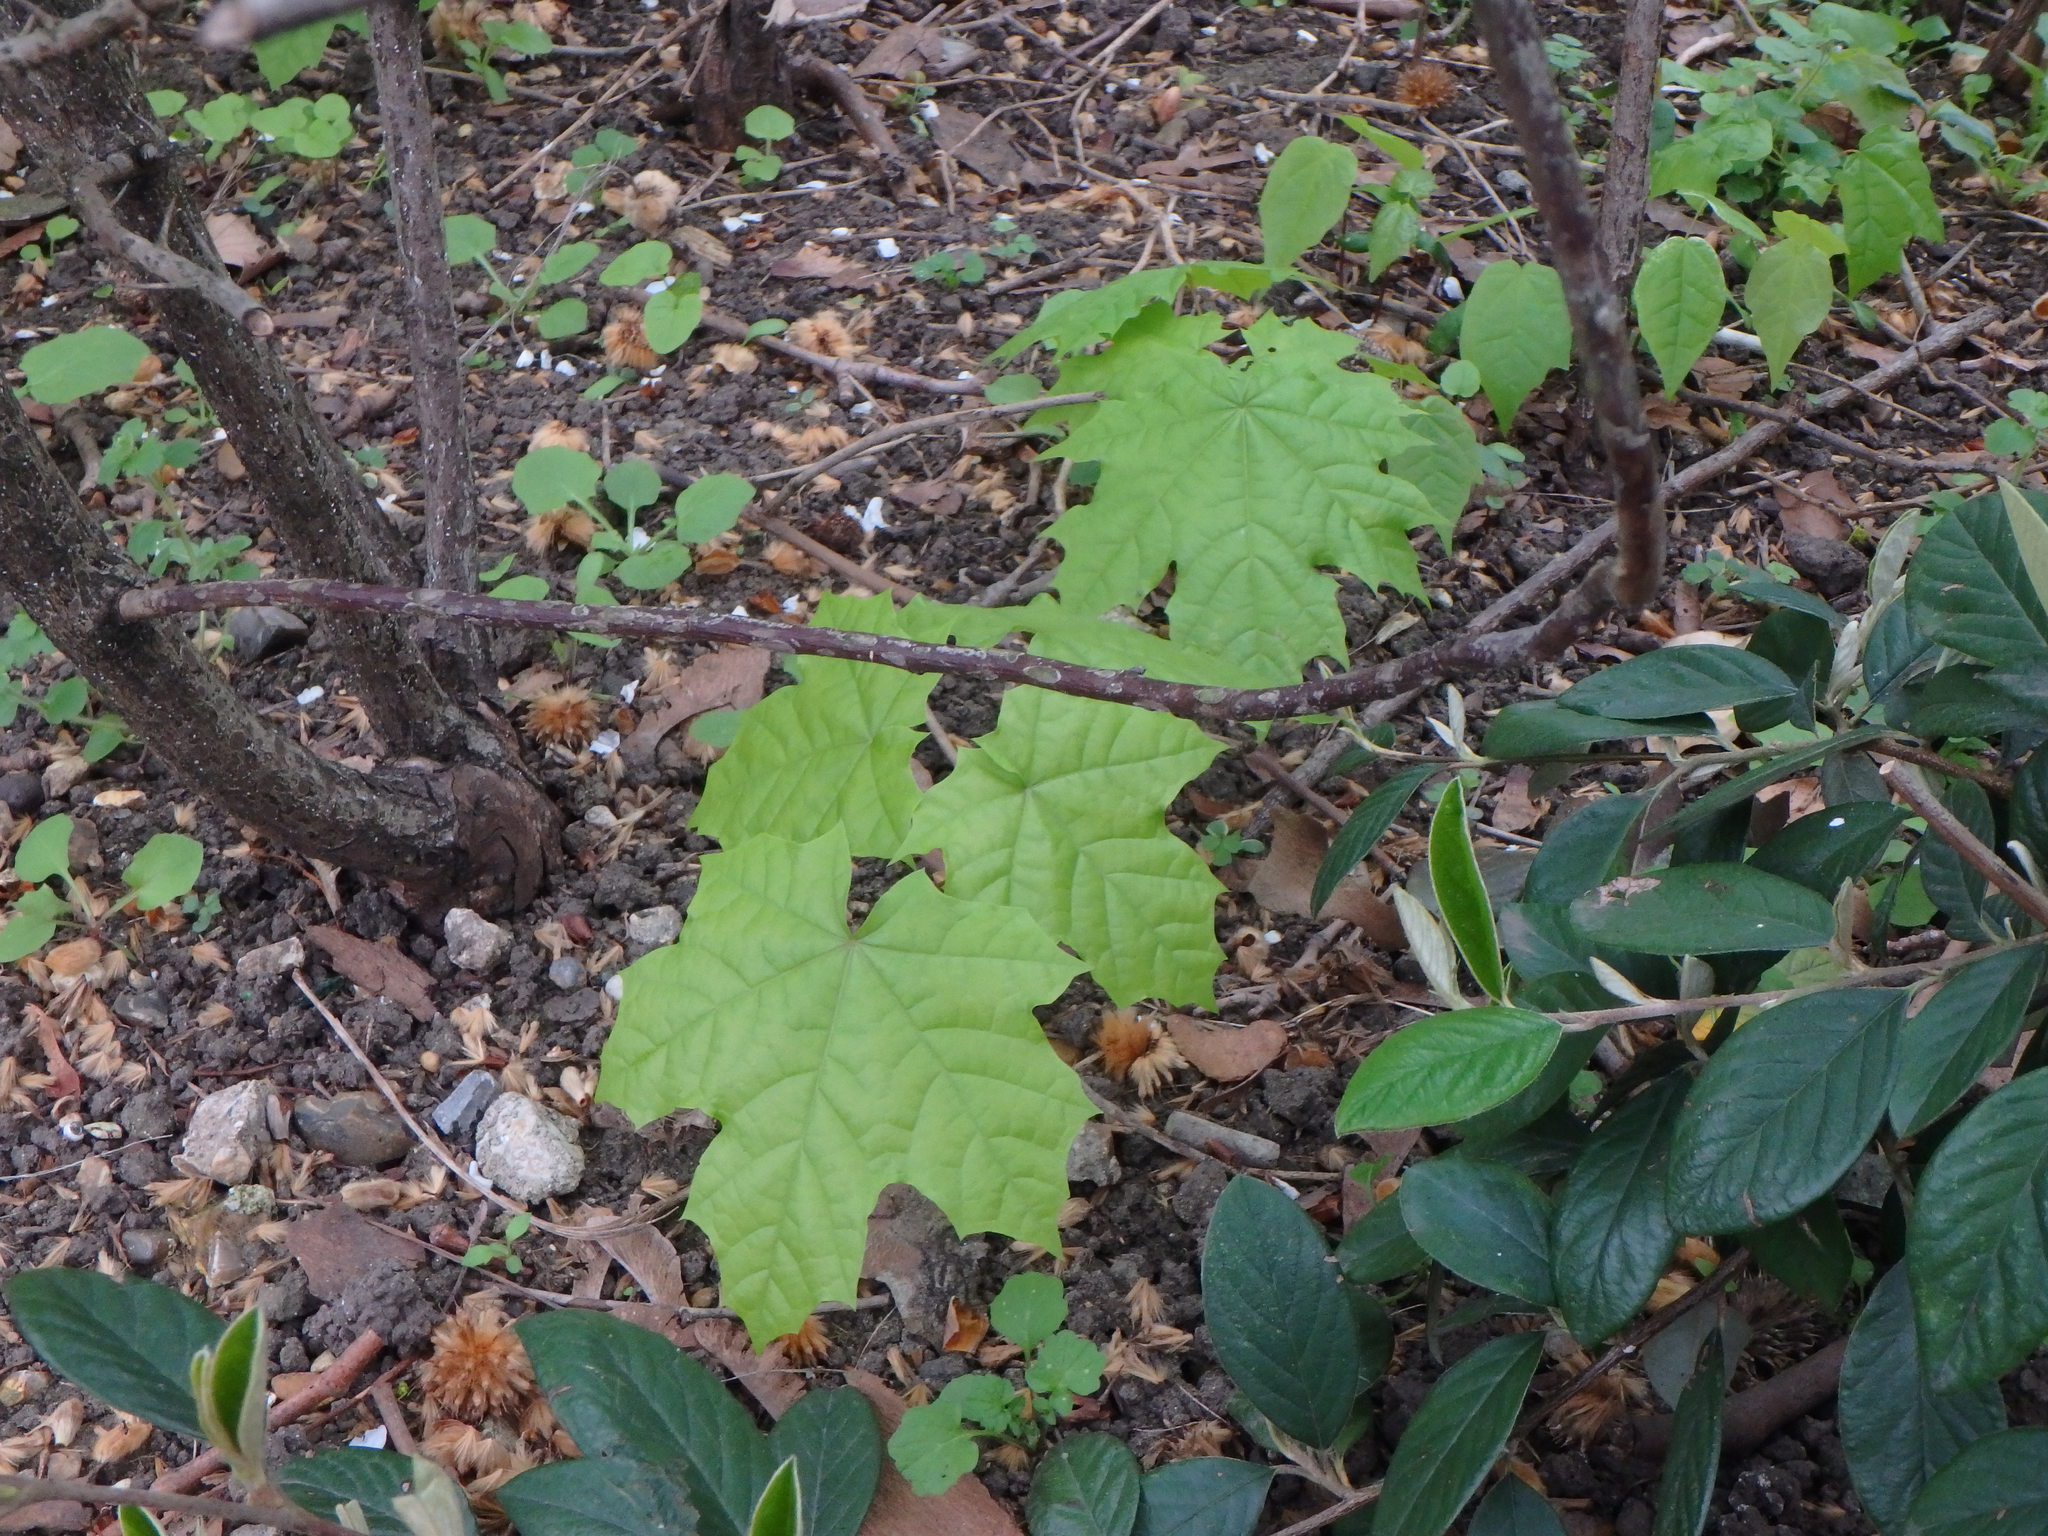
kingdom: Plantae
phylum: Tracheophyta
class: Magnoliopsida
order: Sapindales
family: Sapindaceae
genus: Acer
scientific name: Acer platanoides
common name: Norway maple
